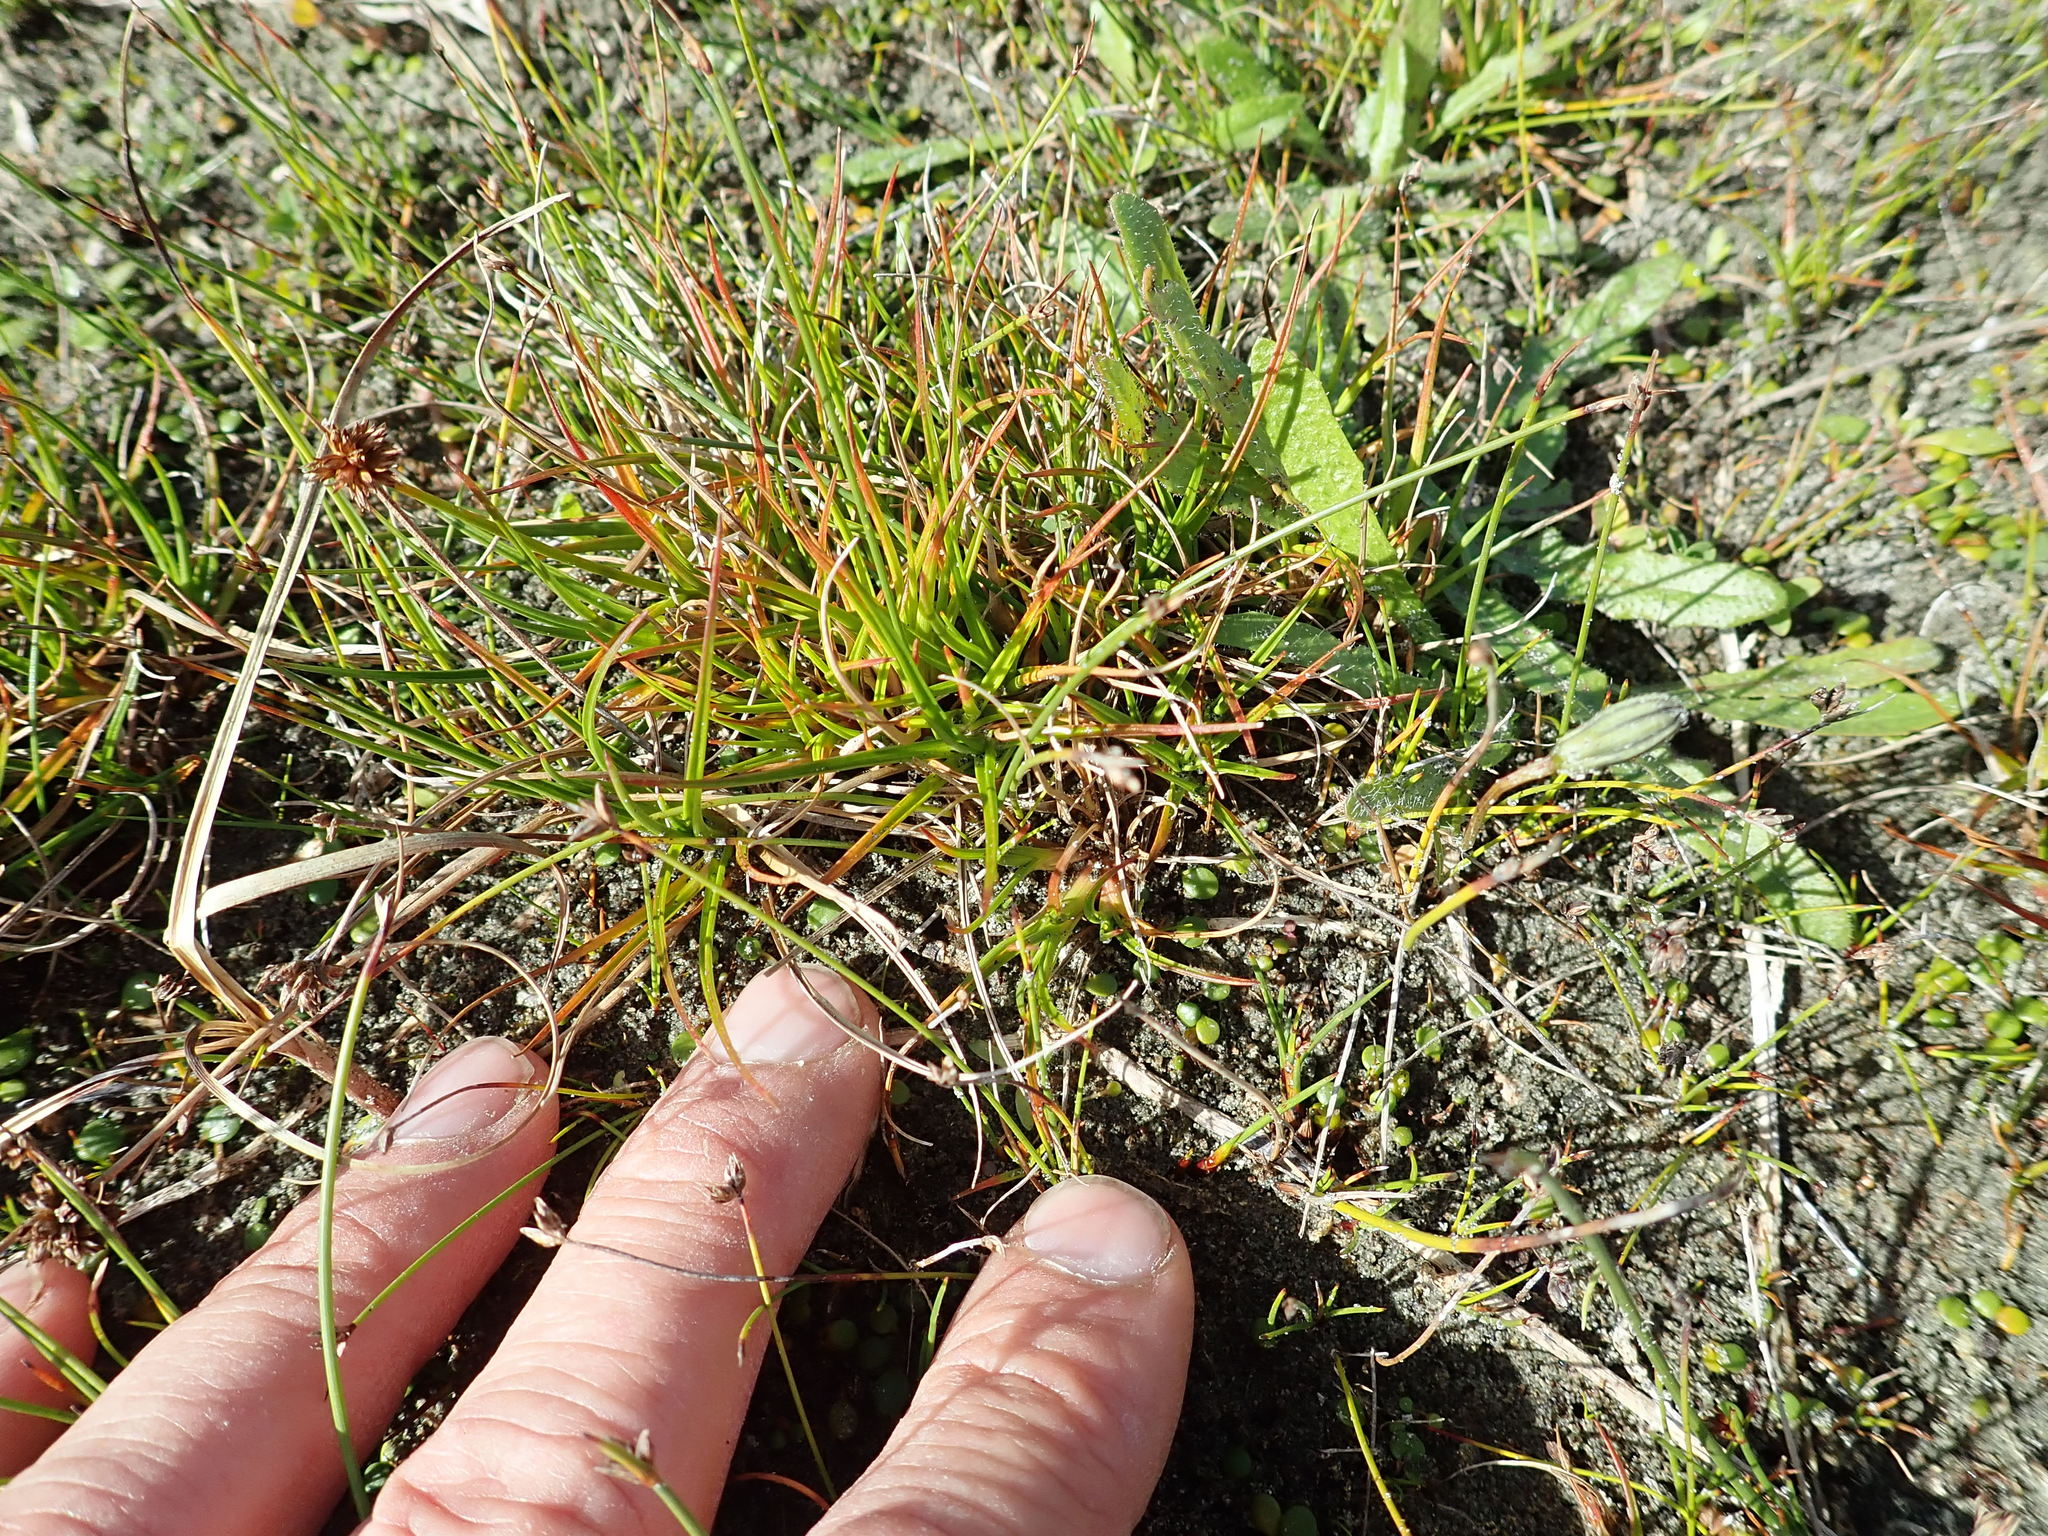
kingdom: Plantae
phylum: Tracheophyta
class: Liliopsida
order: Poales
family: Juncaceae
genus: Juncus
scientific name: Juncus caespiticius
